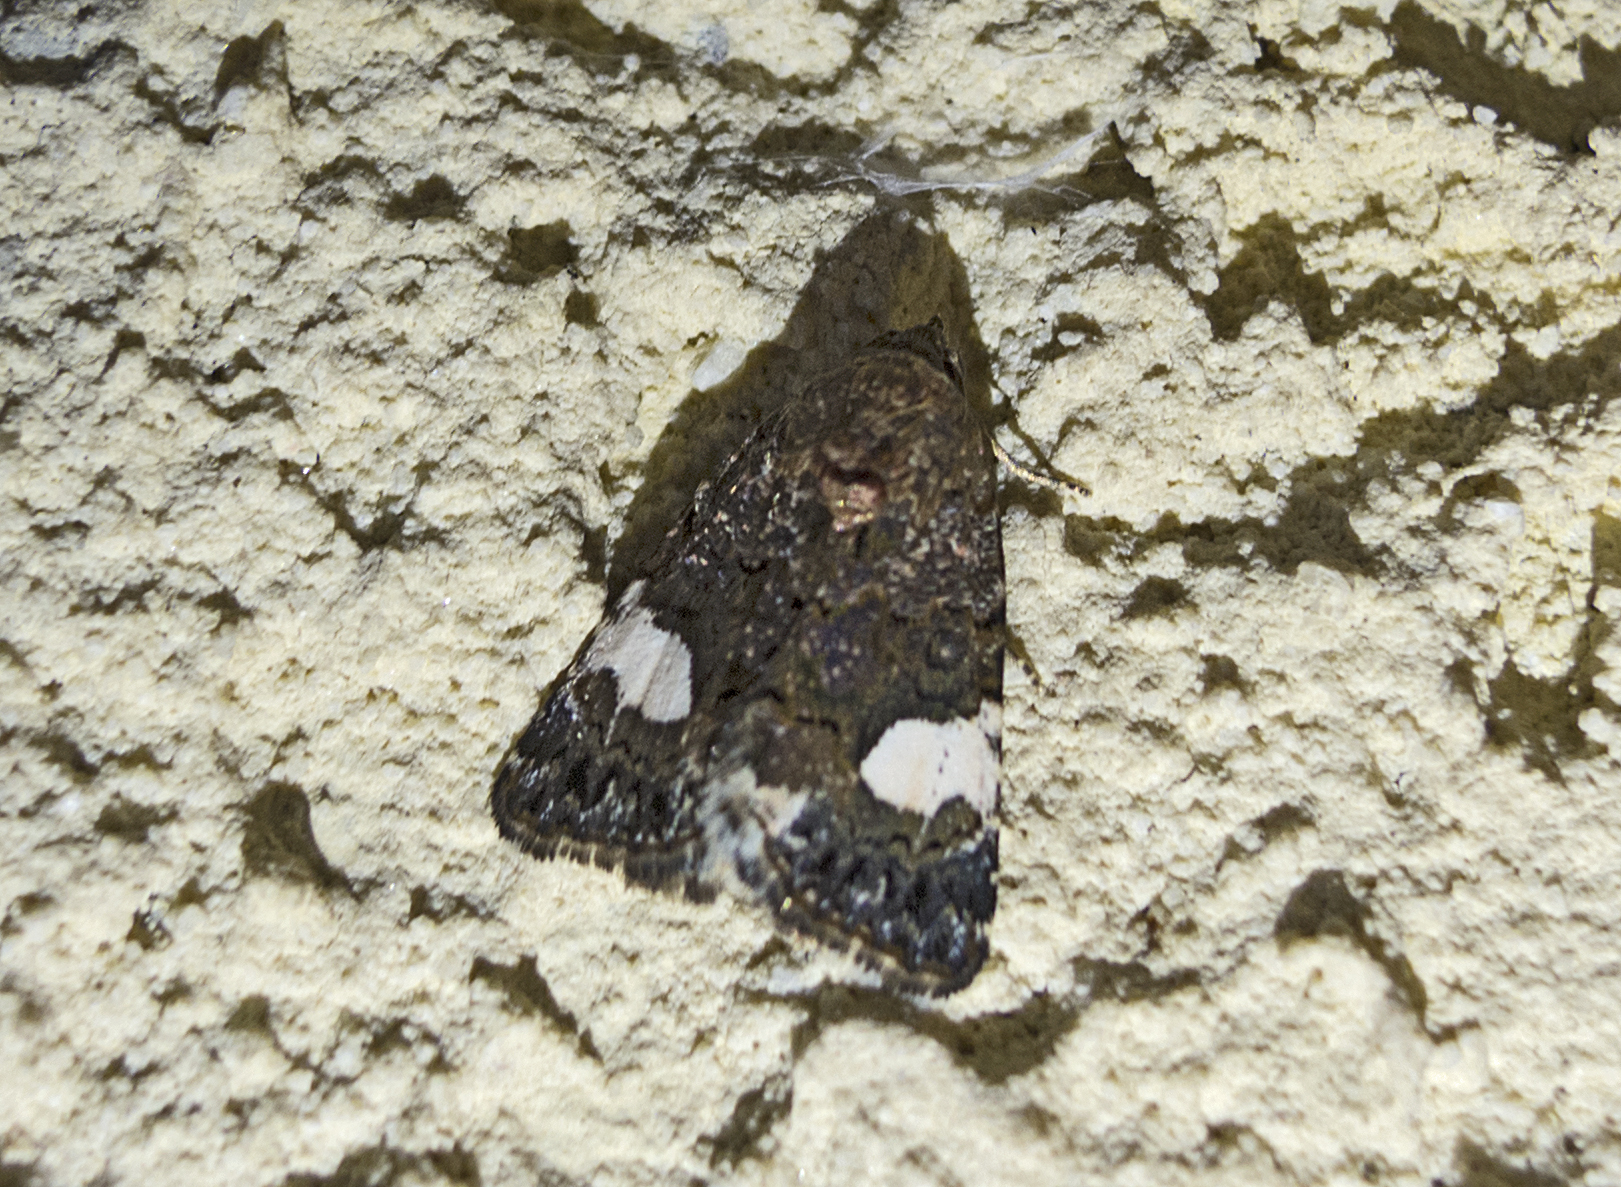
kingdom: Animalia
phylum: Arthropoda
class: Insecta
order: Lepidoptera
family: Erebidae
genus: Tyta
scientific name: Tyta luctuosa
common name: Four-spotted
